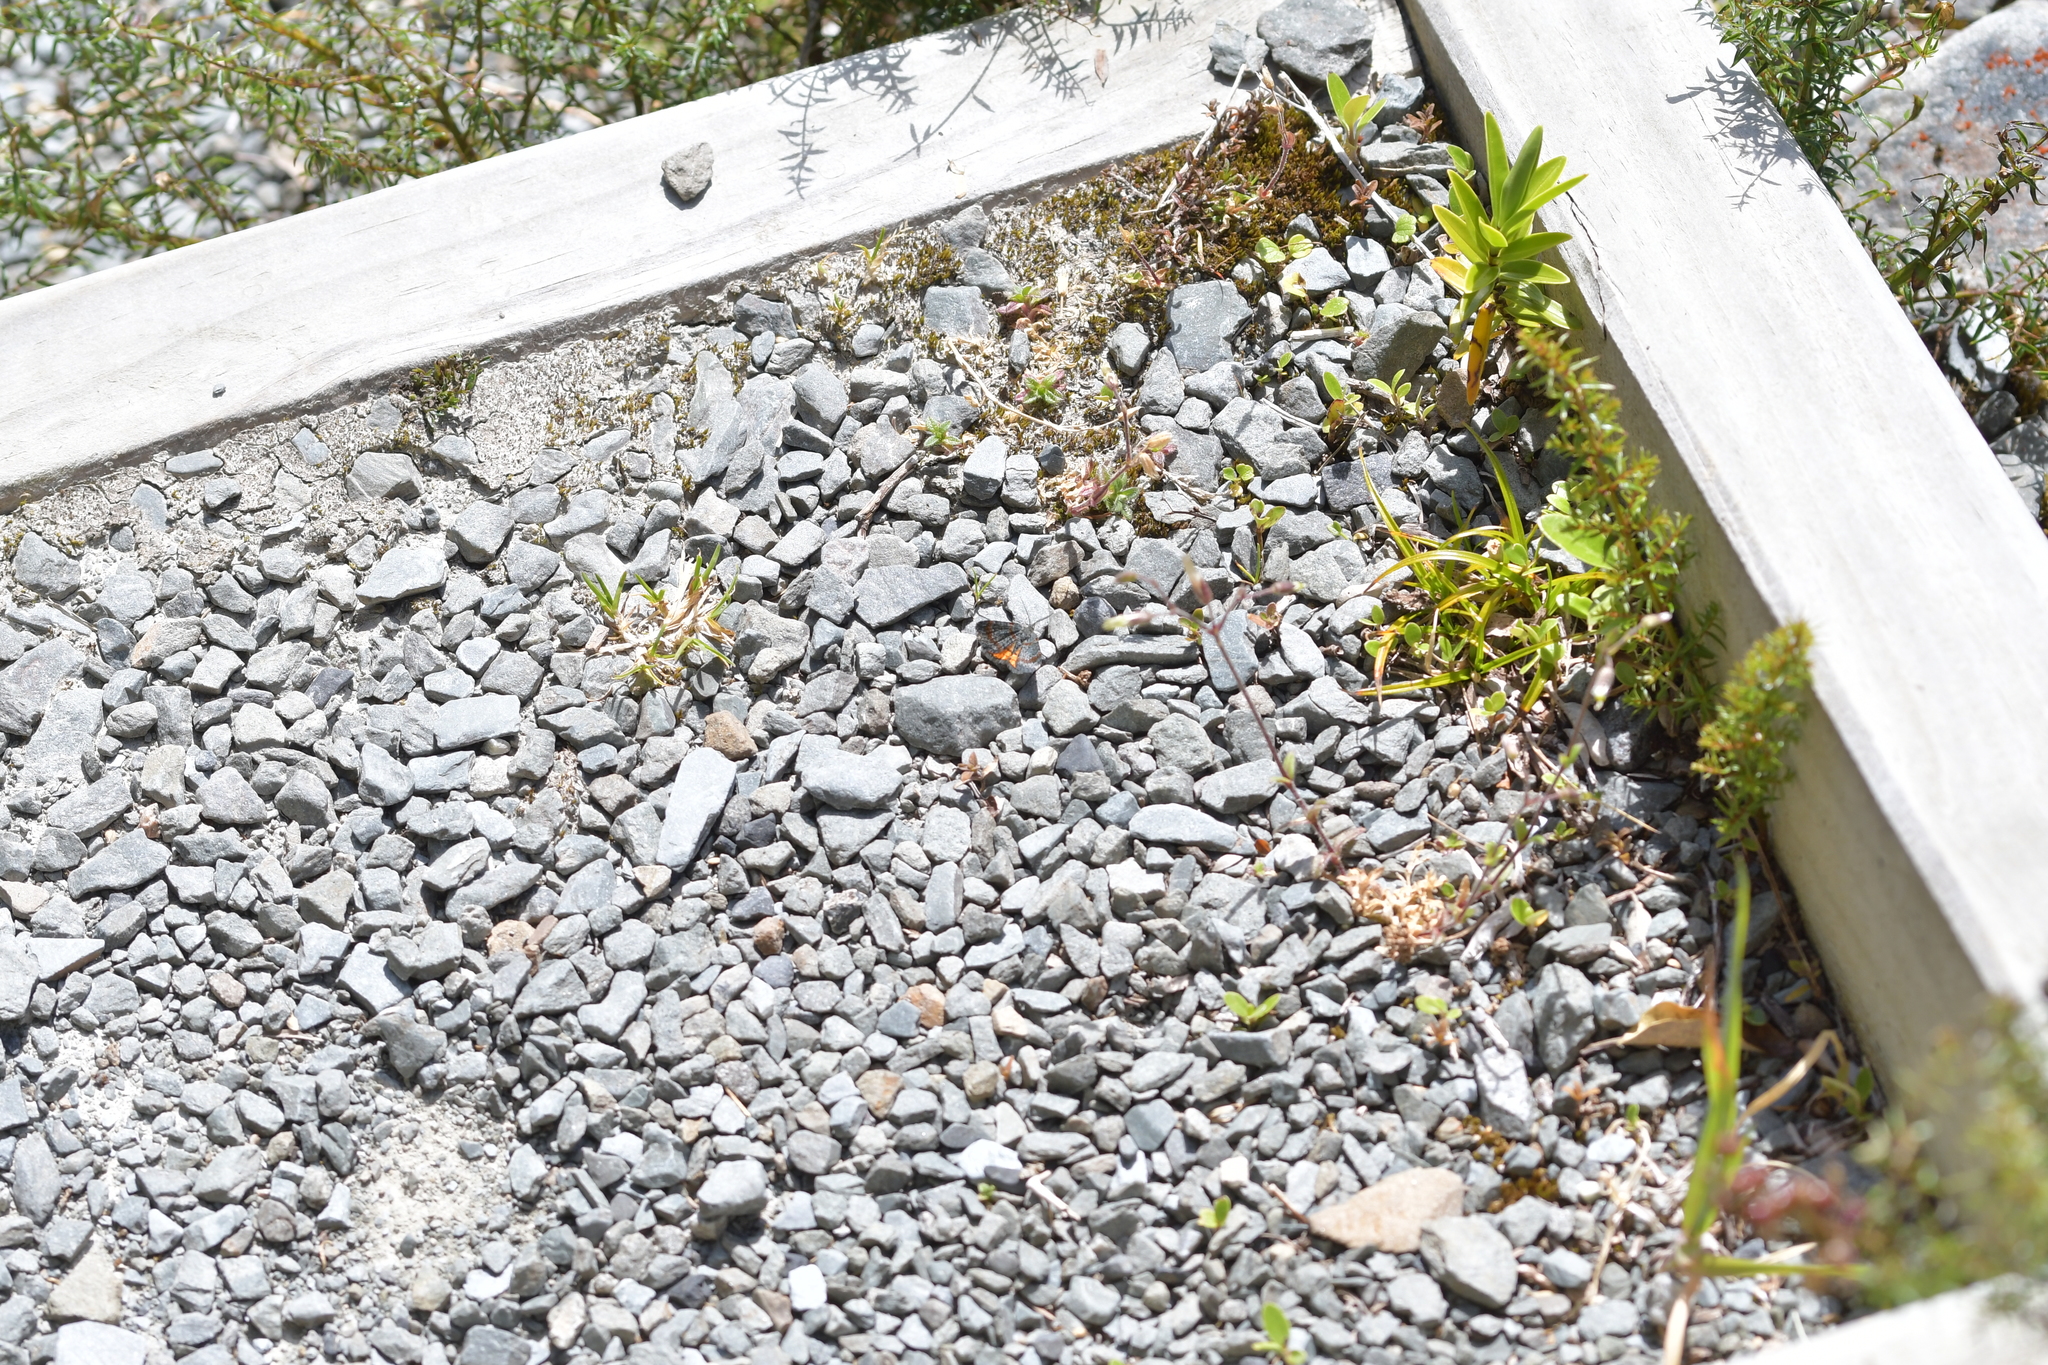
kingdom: Animalia
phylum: Arthropoda
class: Insecta
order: Lepidoptera
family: Geometridae
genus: Paranotoreas
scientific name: Paranotoreas zopyra
